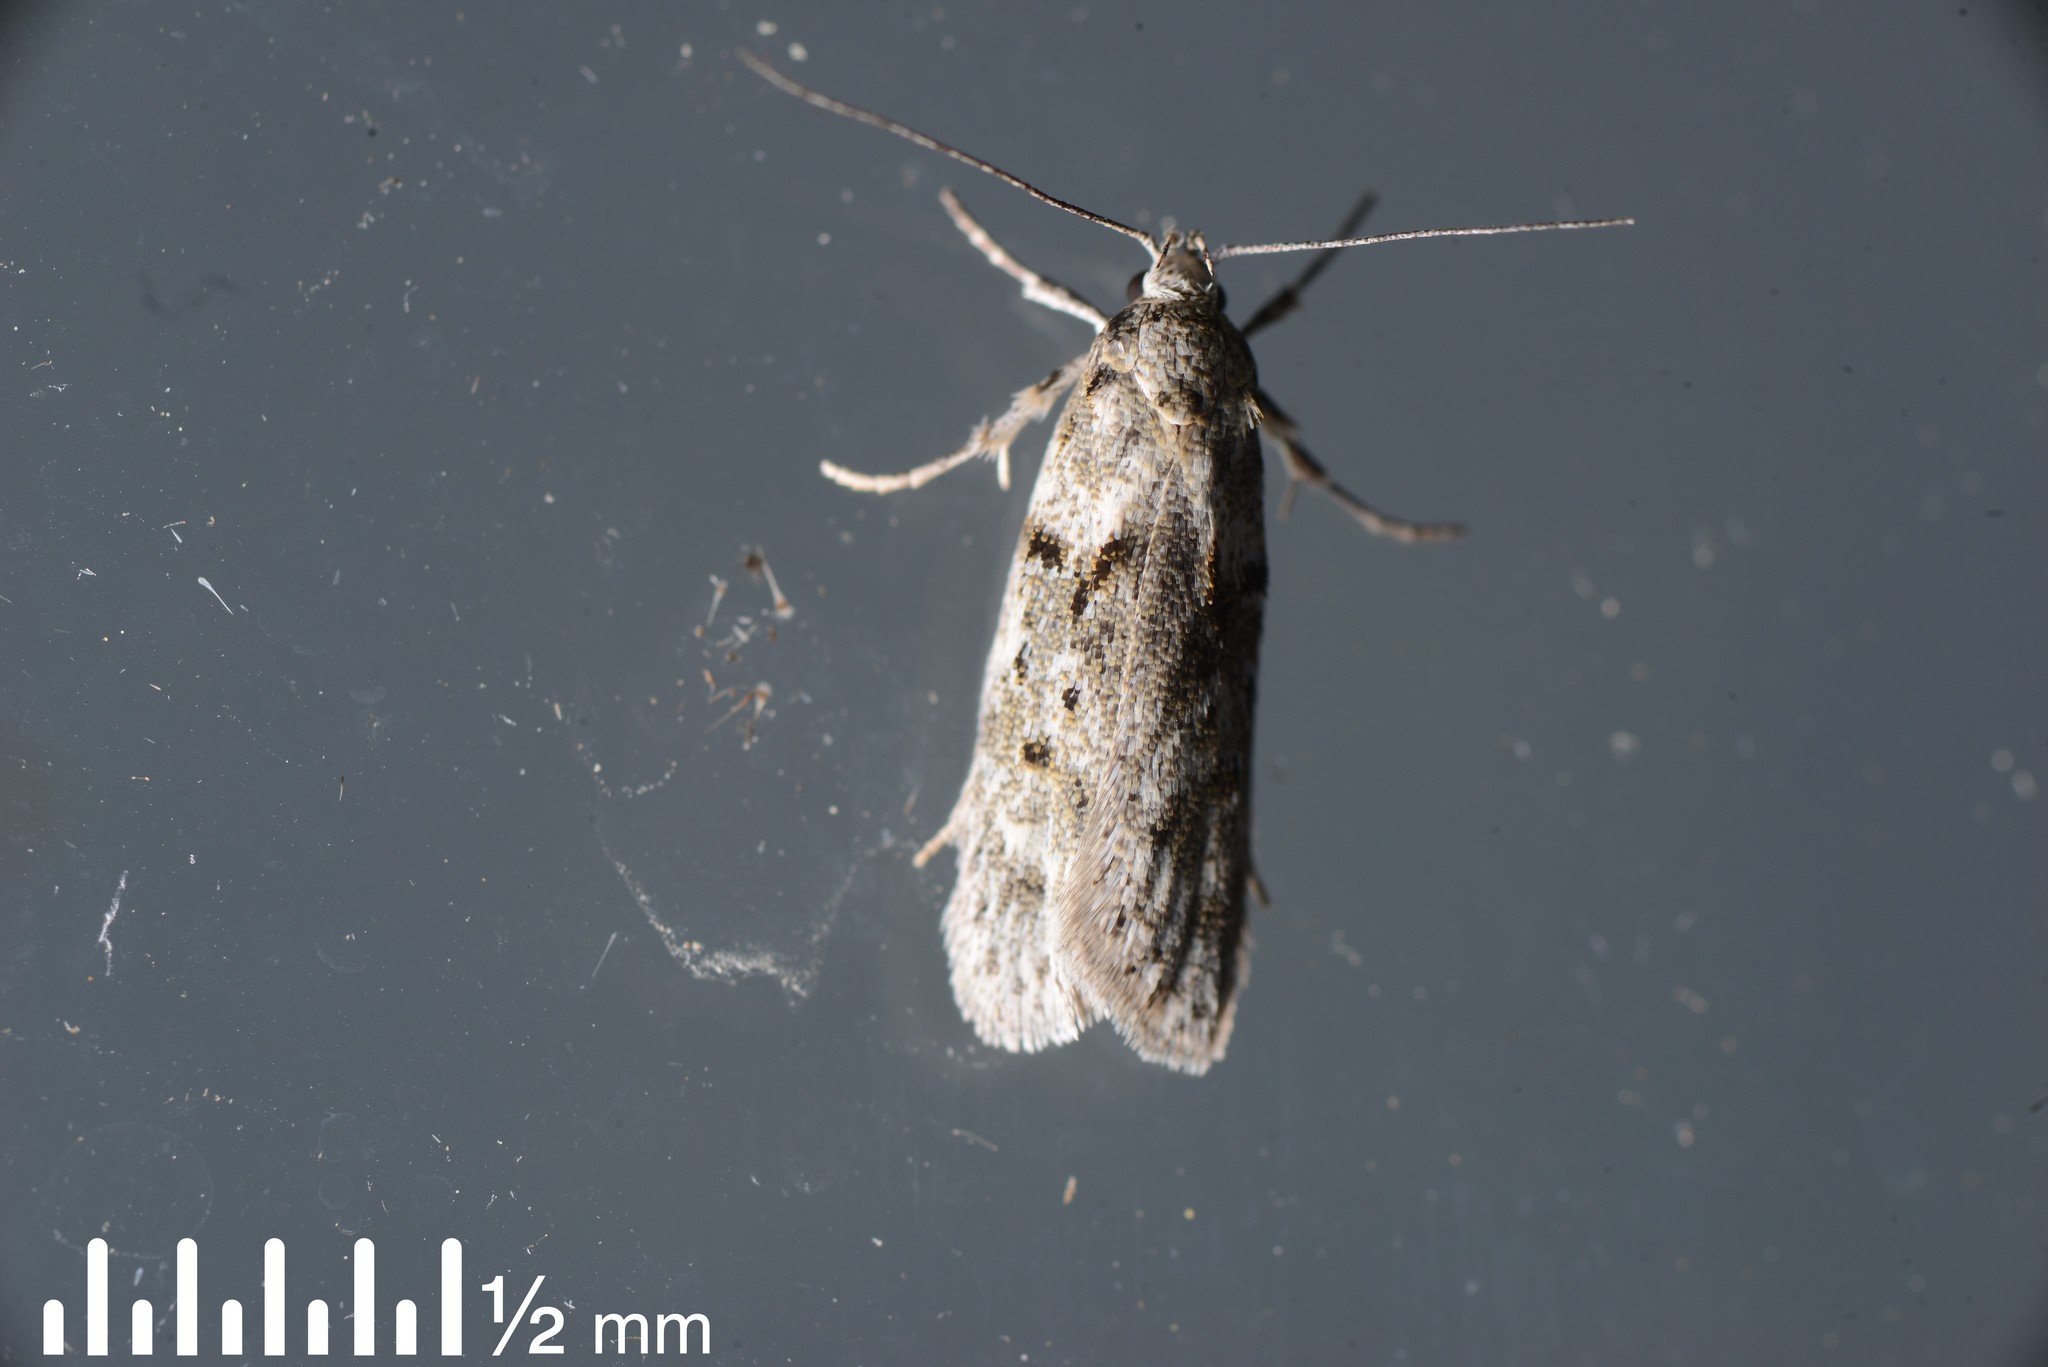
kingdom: Animalia
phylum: Arthropoda
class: Insecta
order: Lepidoptera
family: Oecophoridae
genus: Izatha
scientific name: Izatha convulsella
